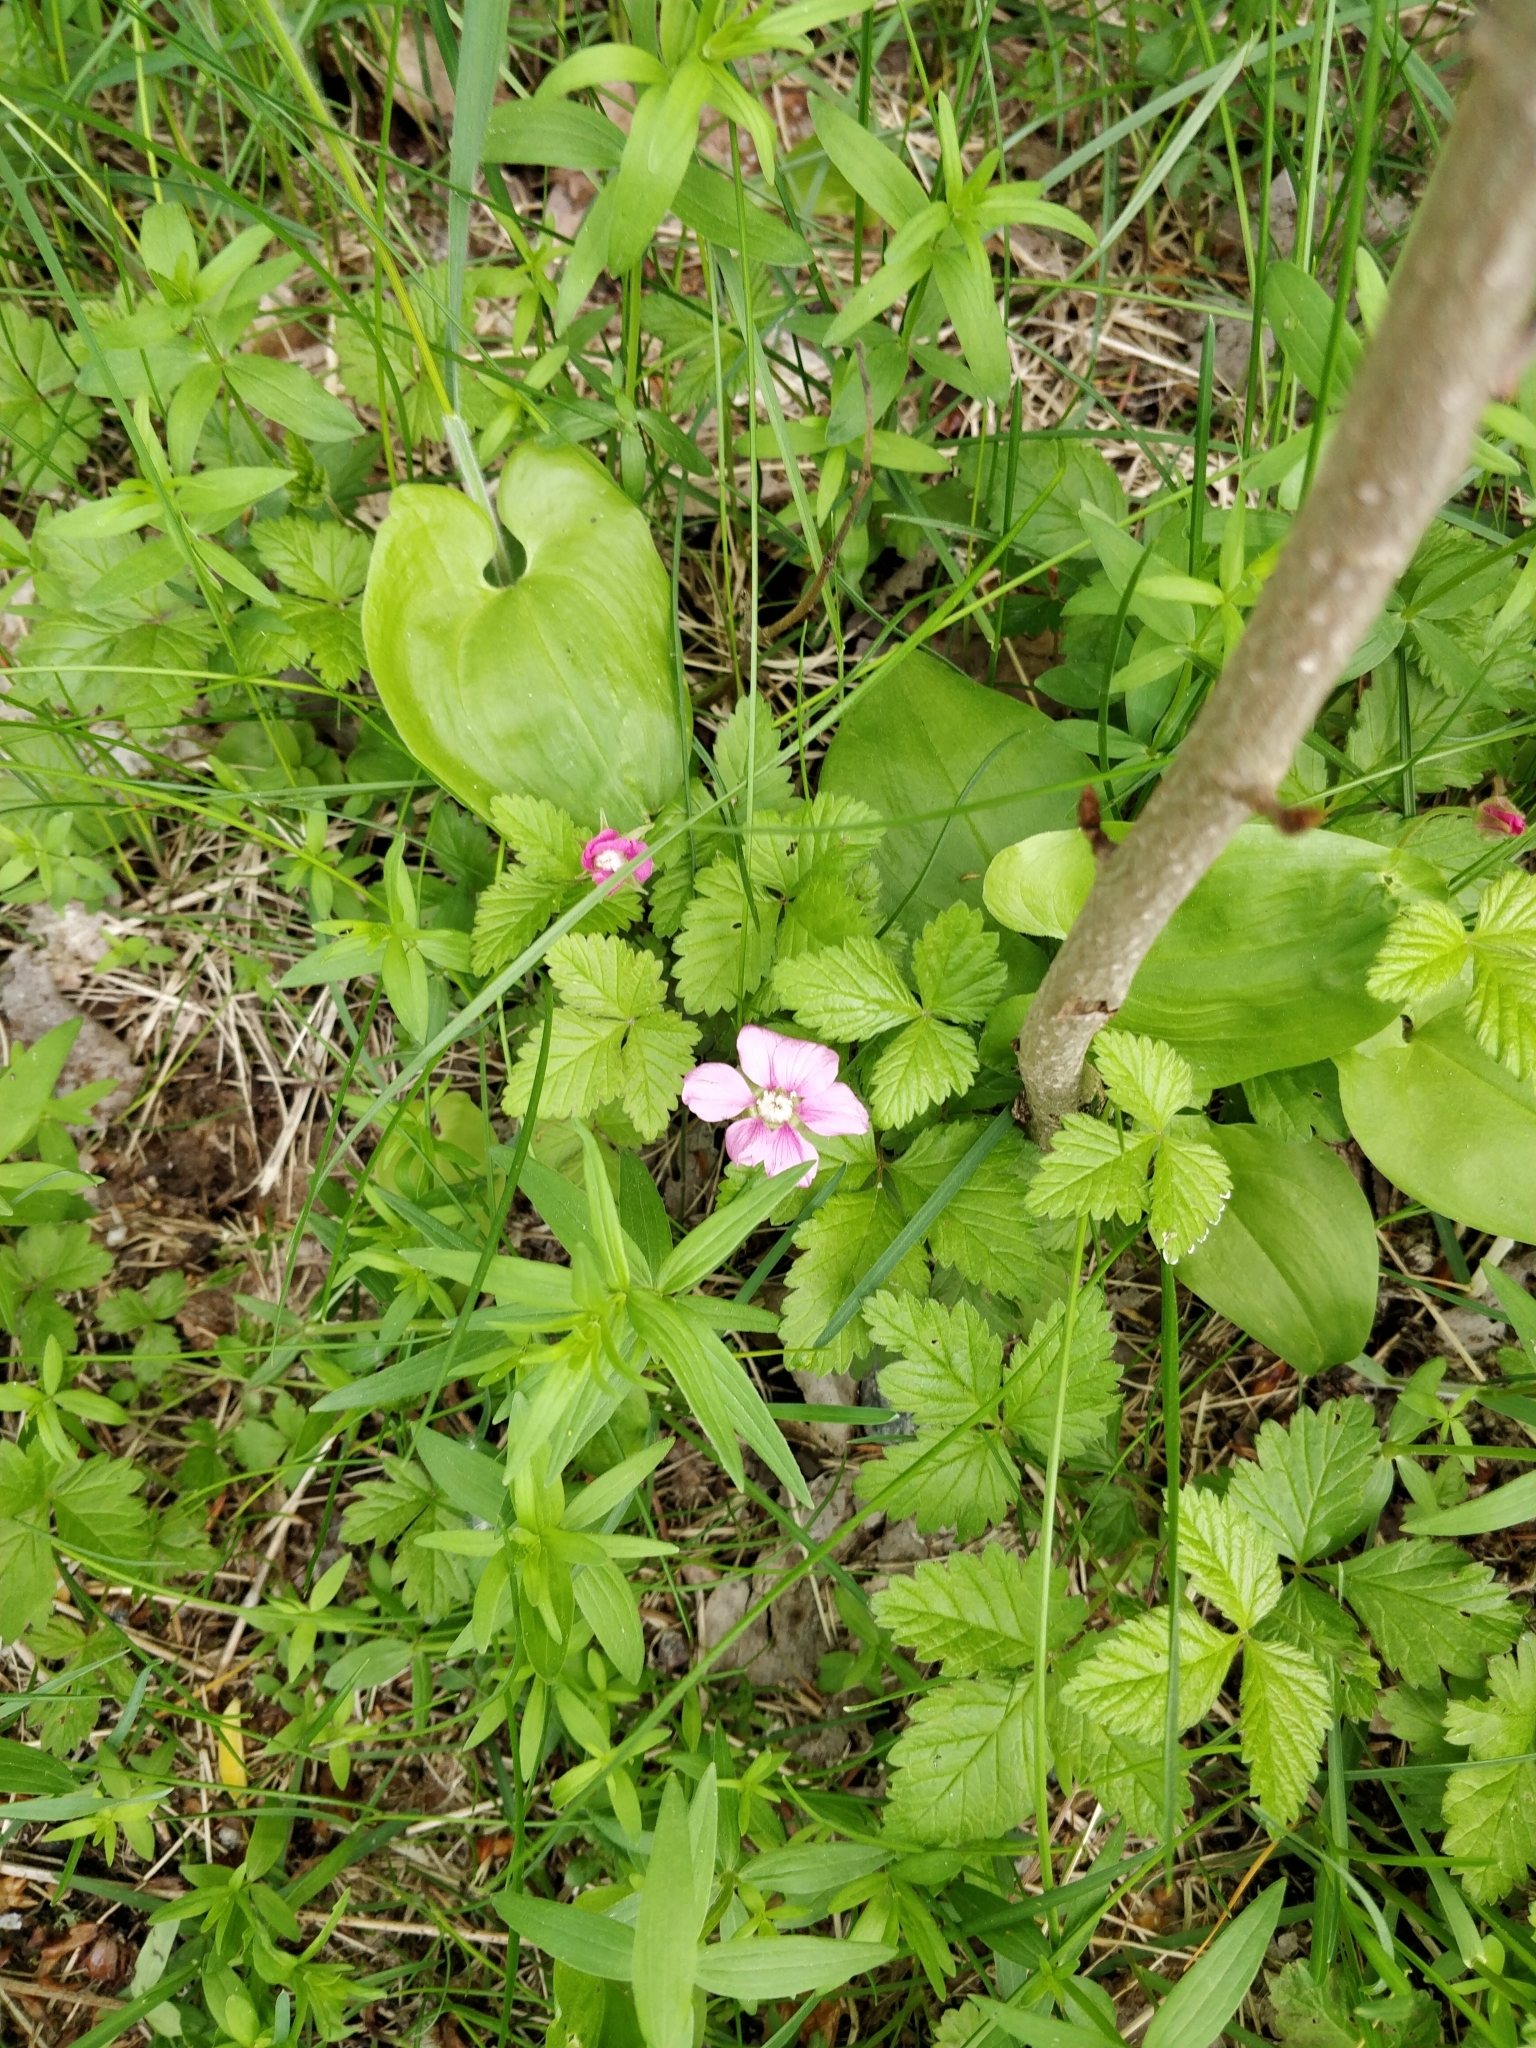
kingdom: Plantae
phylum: Tracheophyta
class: Magnoliopsida
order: Rosales
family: Rosaceae
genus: Rubus
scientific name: Rubus arcticus
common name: Arctic bramble
